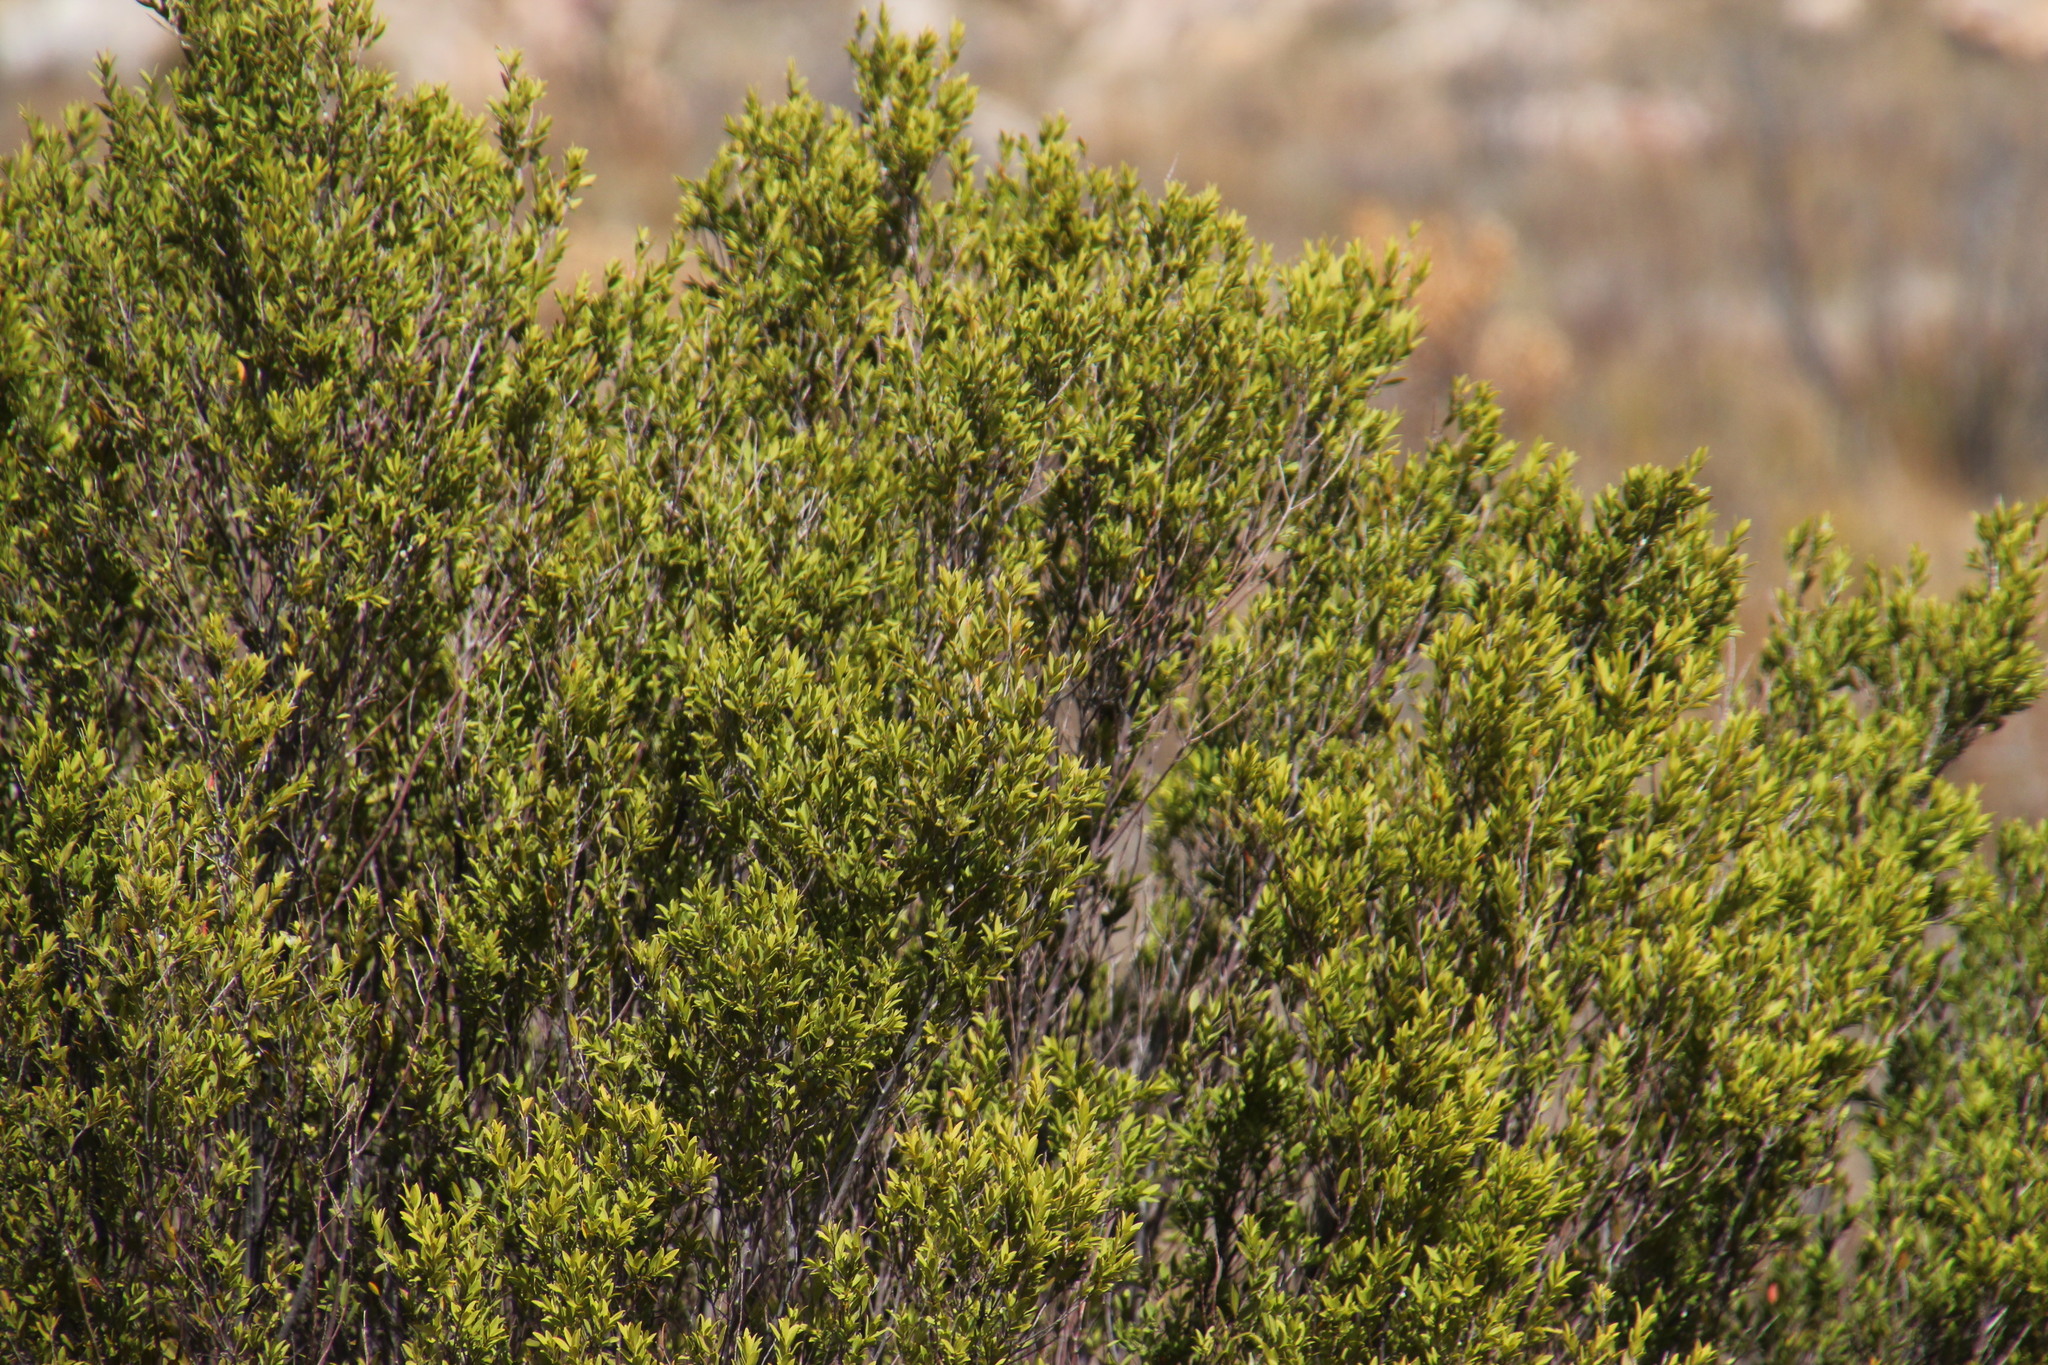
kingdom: Plantae
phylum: Tracheophyta
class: Magnoliopsida
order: Ericales
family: Ebenaceae
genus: Diospyros
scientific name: Diospyros glabra
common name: Fynbos star apple
